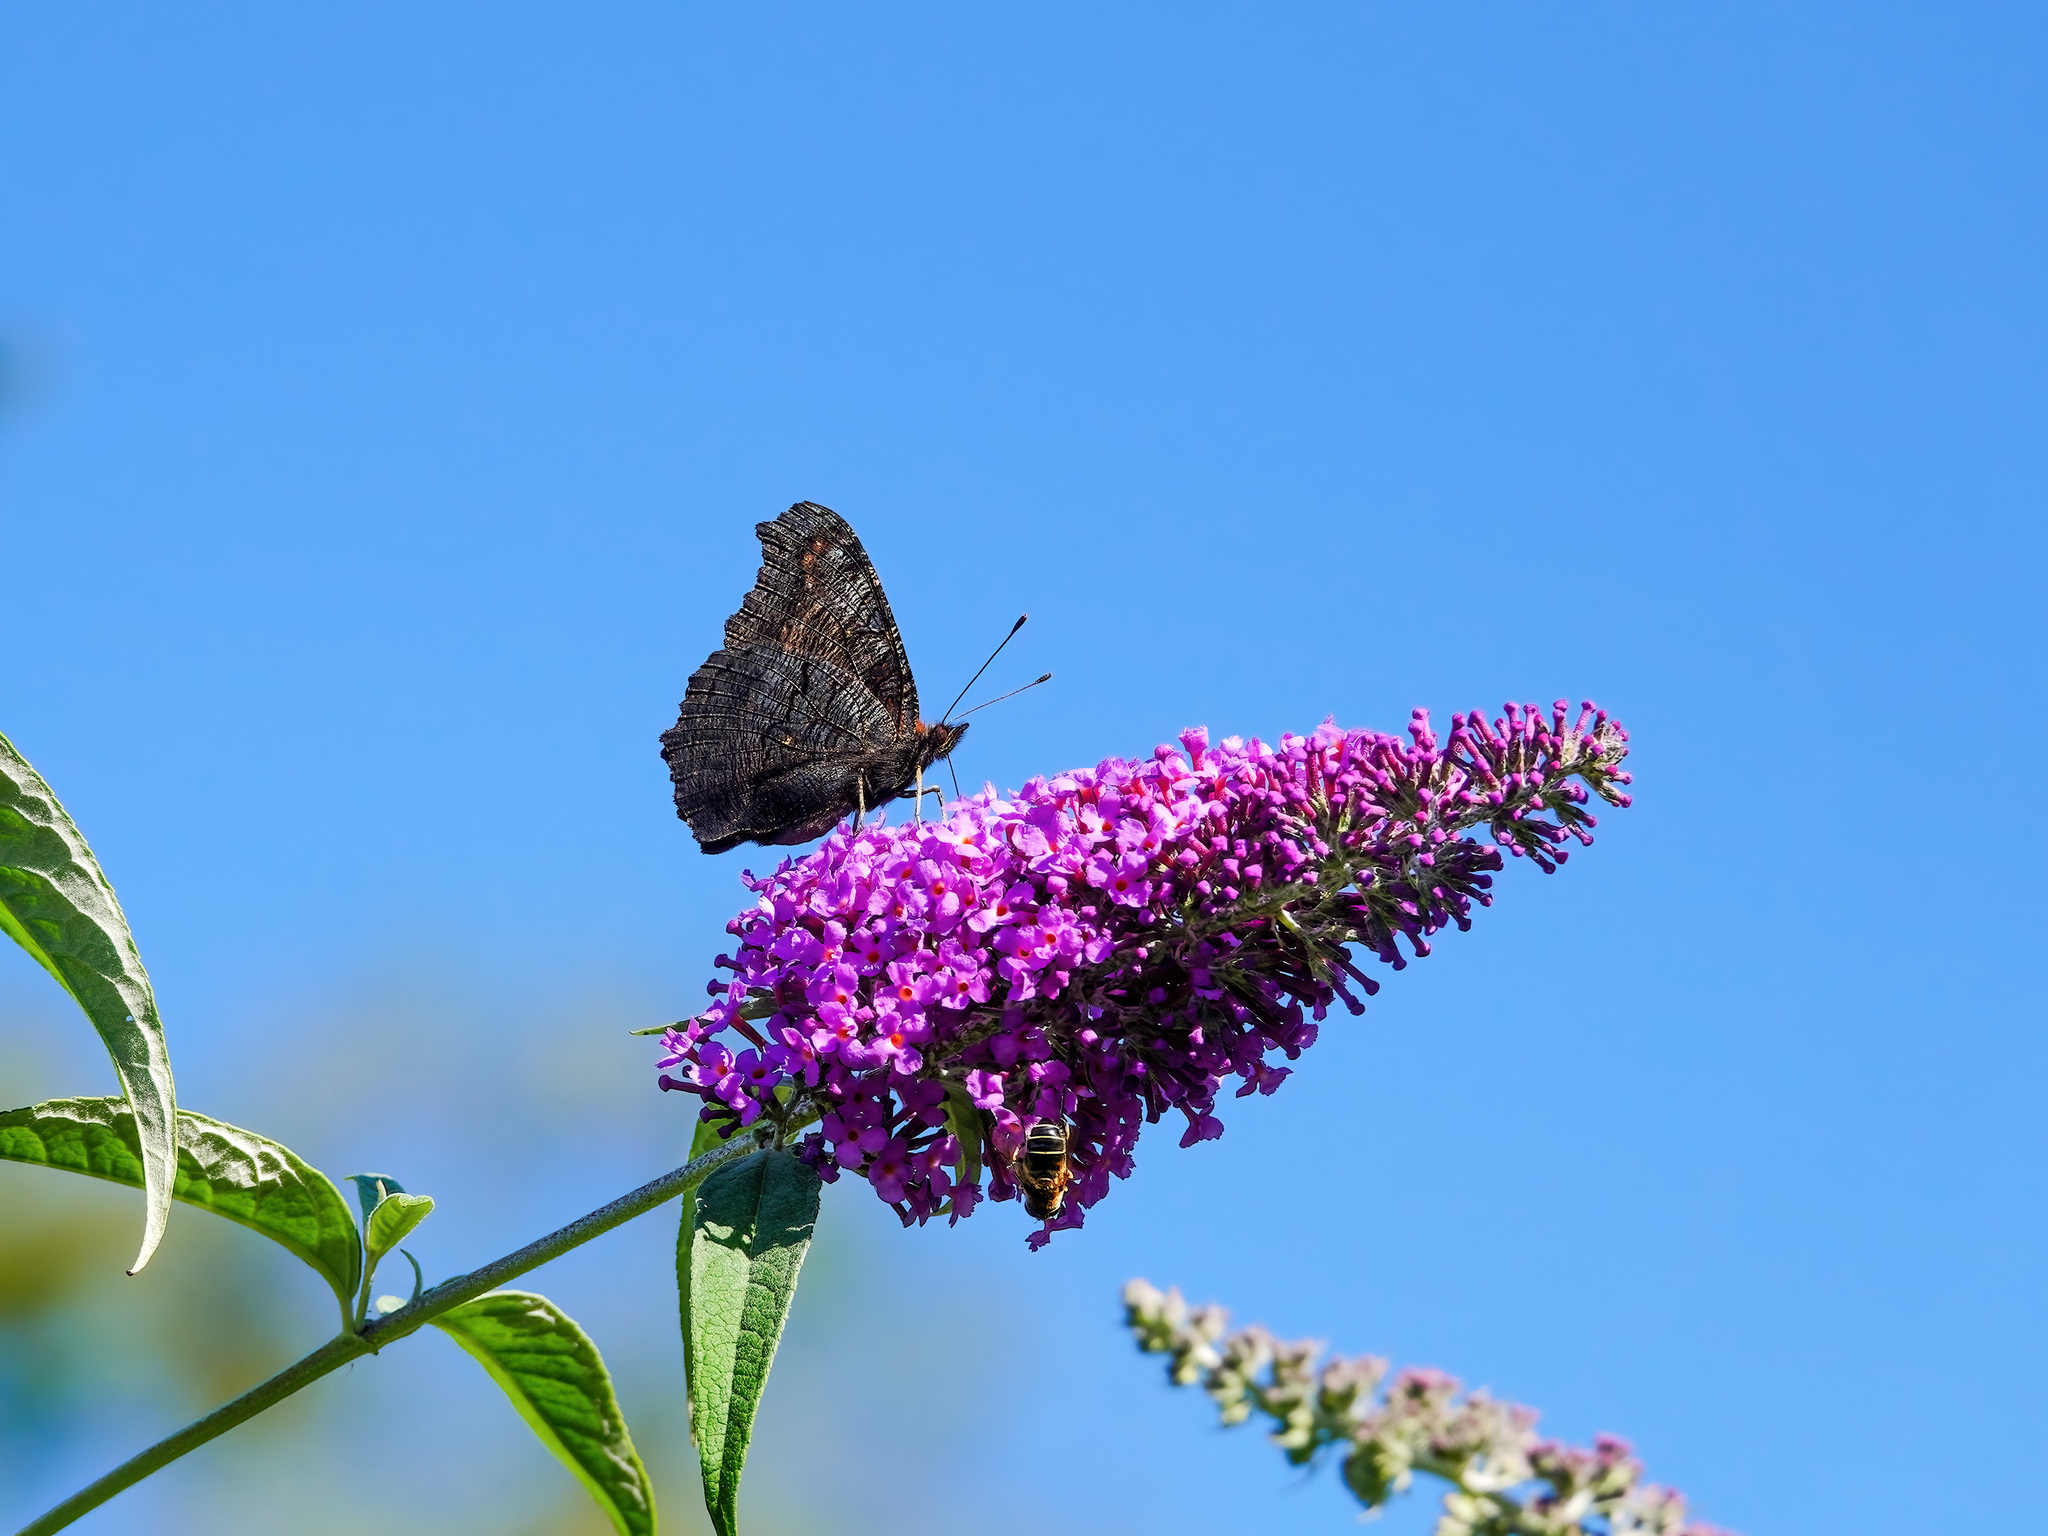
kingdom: Animalia
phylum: Arthropoda
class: Insecta
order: Lepidoptera
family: Nymphalidae
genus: Aglais
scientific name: Aglais urticae
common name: Small tortoiseshell
